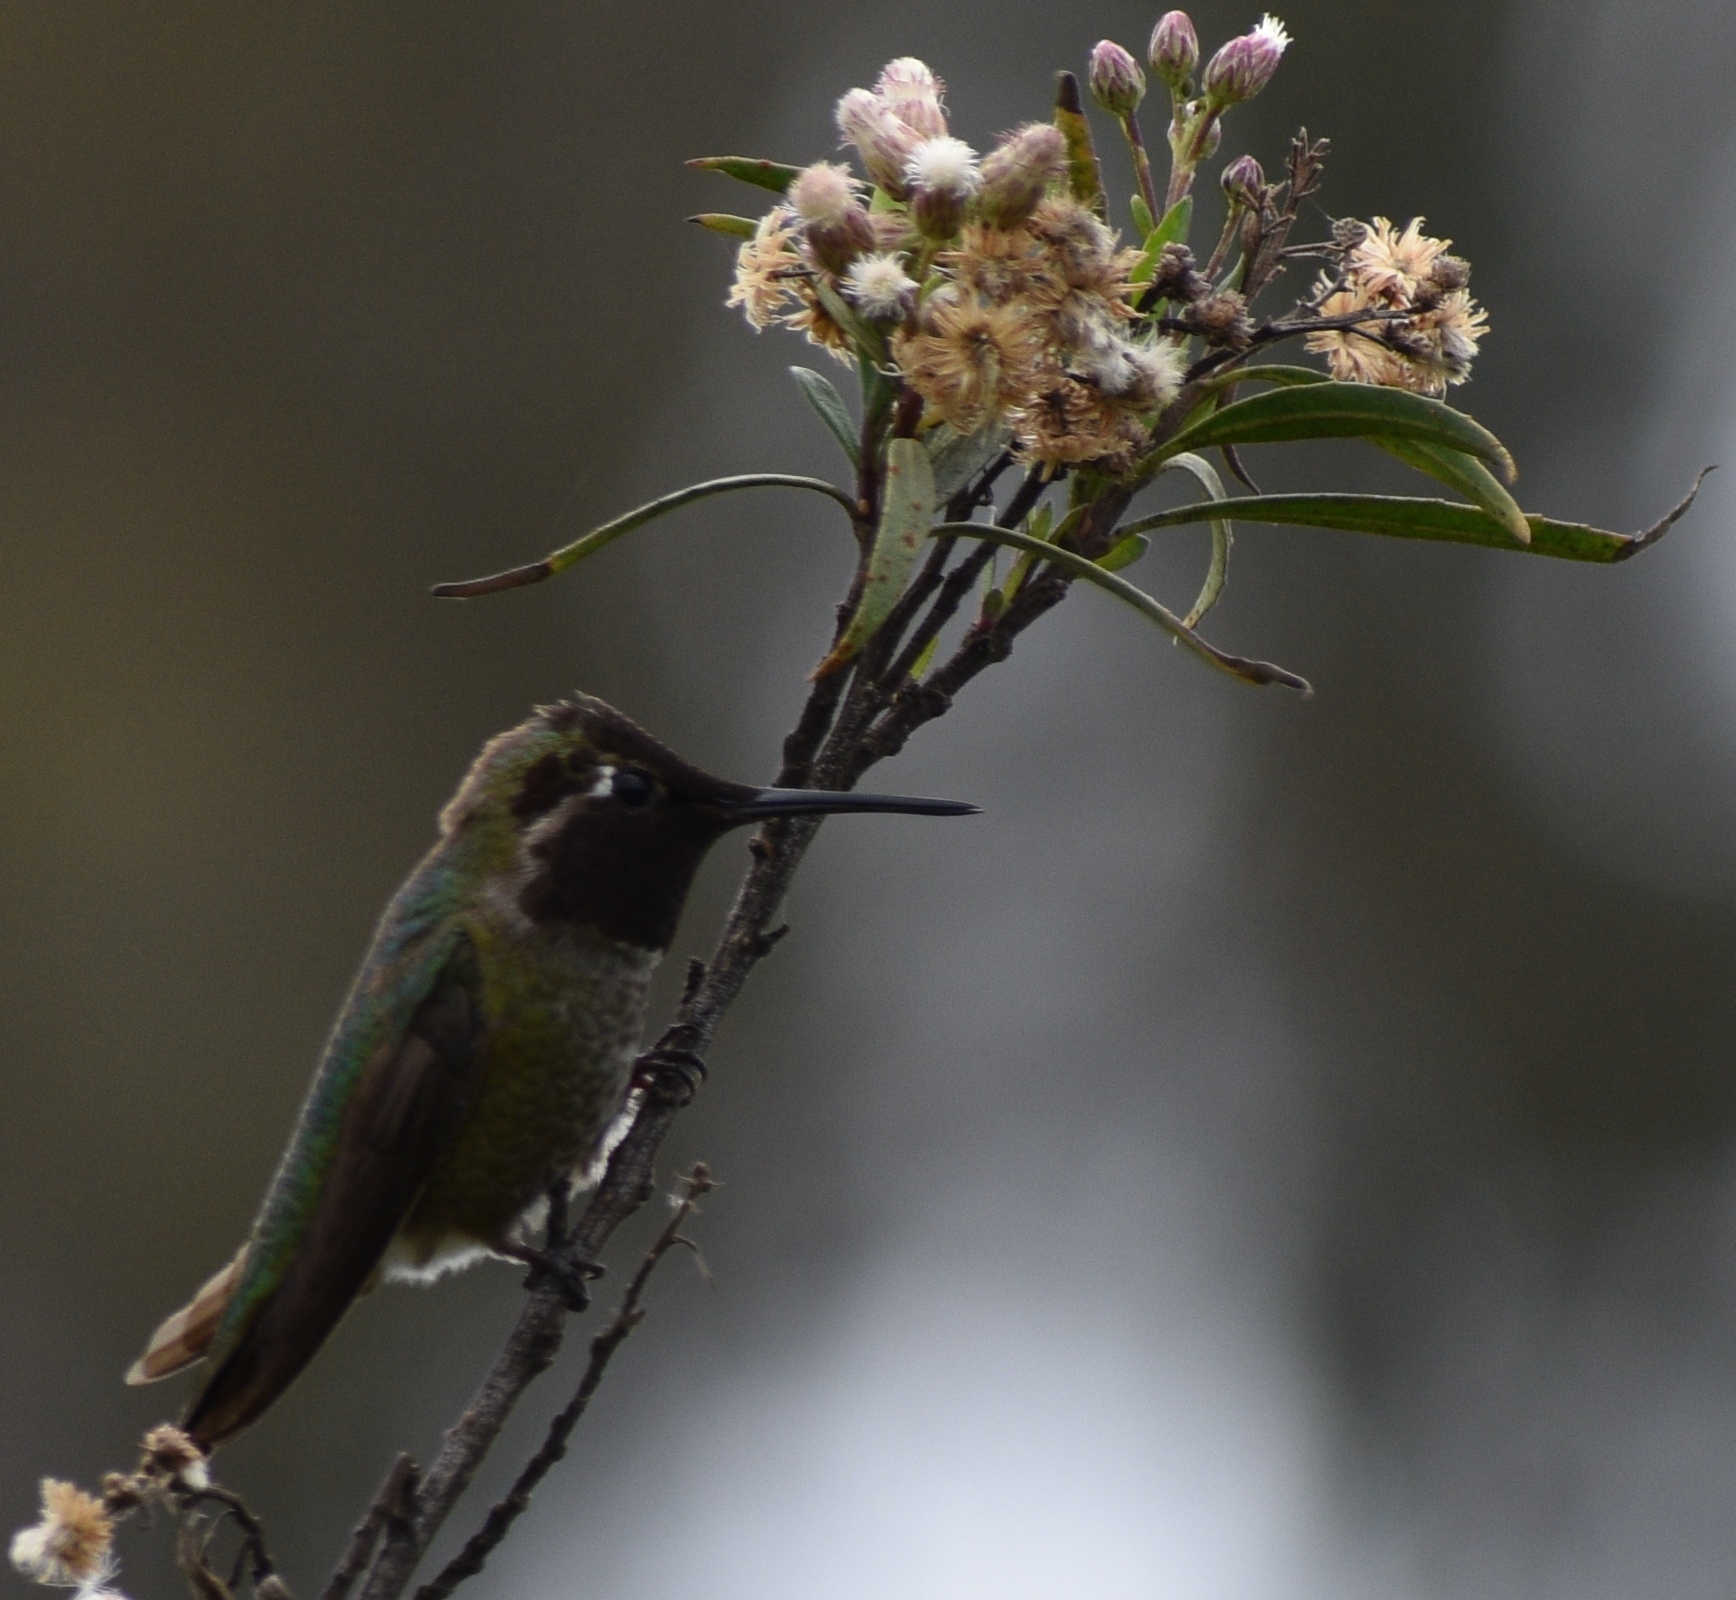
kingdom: Animalia
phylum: Chordata
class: Aves
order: Apodiformes
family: Trochilidae
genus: Calypte
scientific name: Calypte anna
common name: Anna's hummingbird
